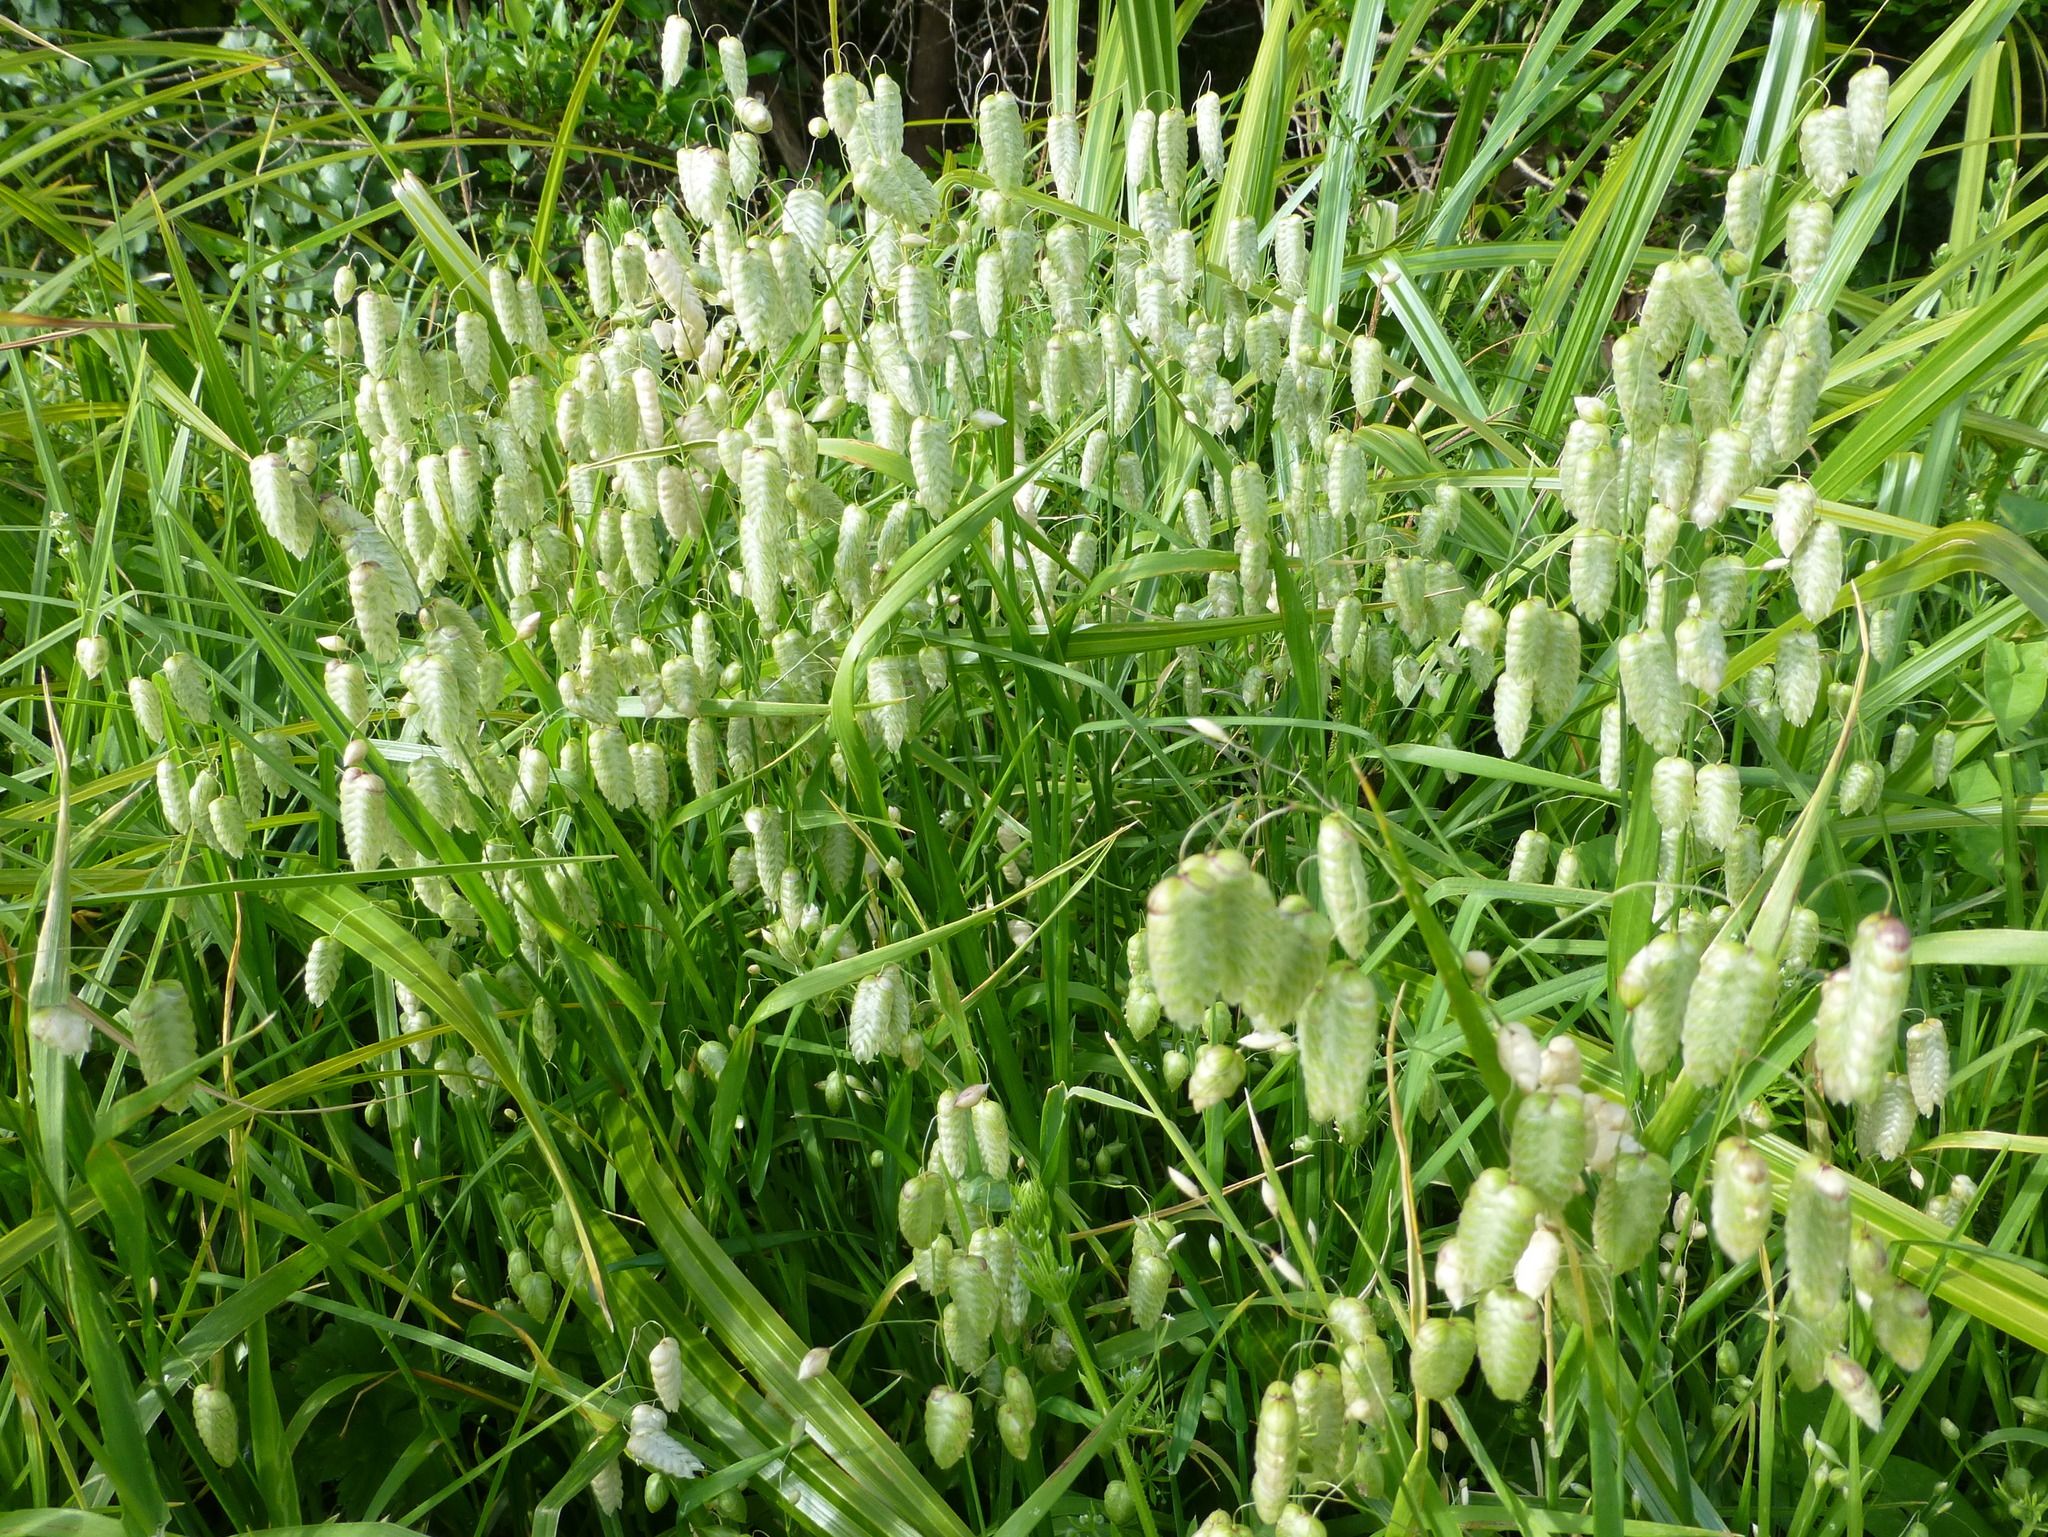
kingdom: Plantae
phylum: Tracheophyta
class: Liliopsida
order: Poales
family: Poaceae
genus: Briza
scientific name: Briza maxima
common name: Big quakinggrass
